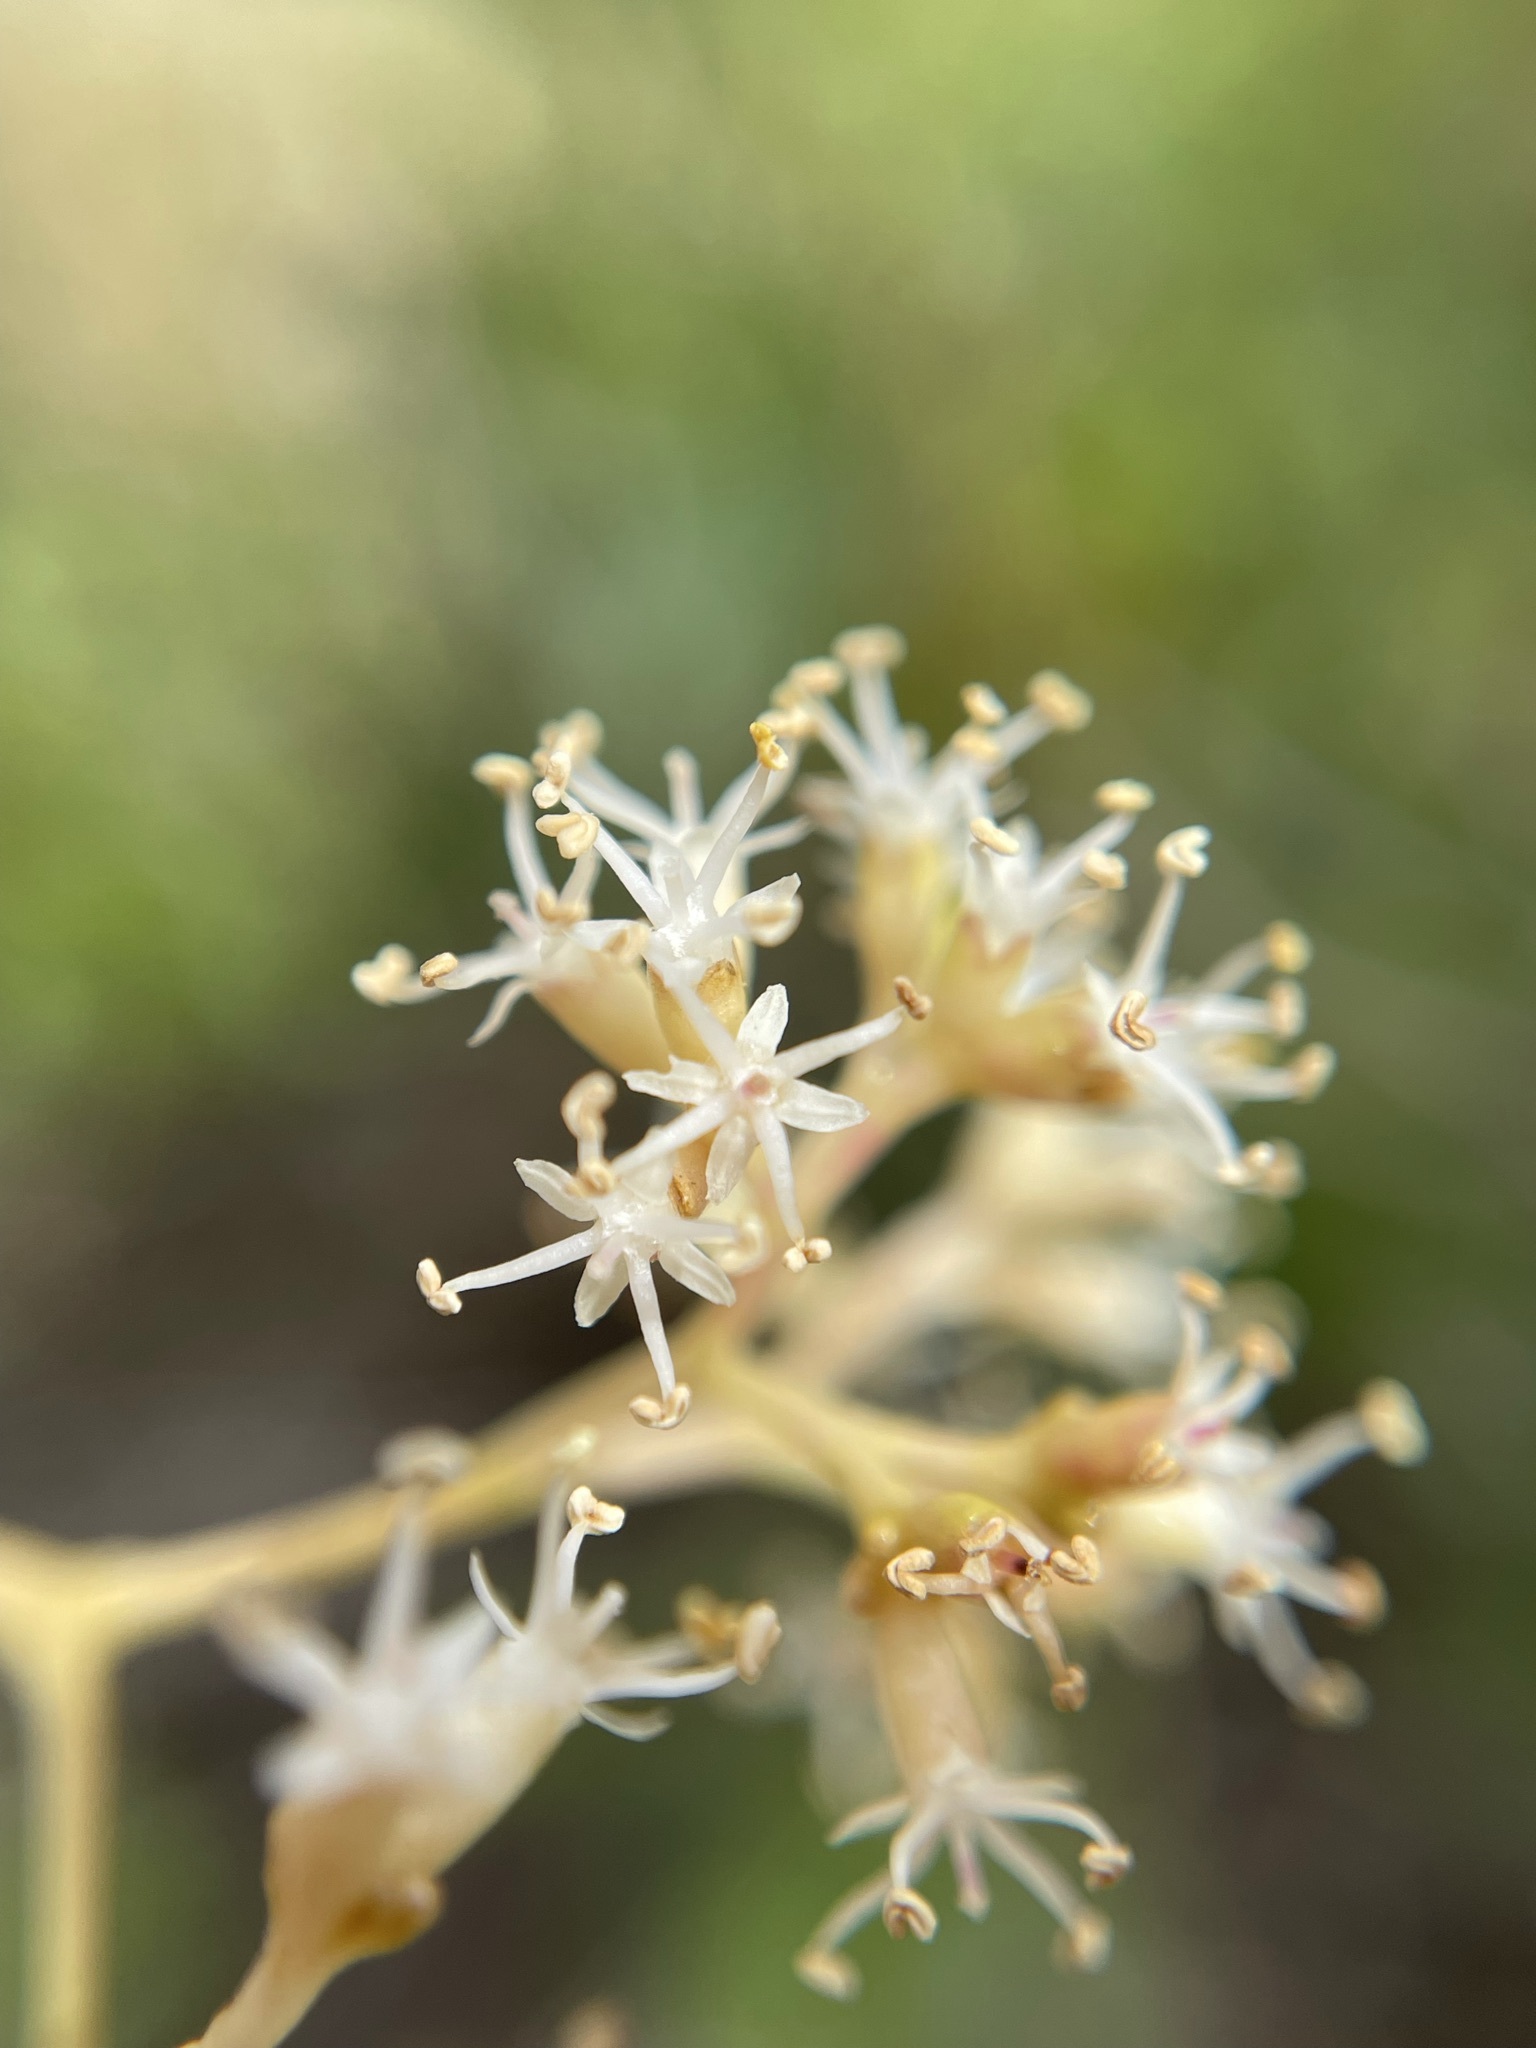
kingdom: Plantae
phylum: Tracheophyta
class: Magnoliopsida
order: Lamiales
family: Stilbaceae
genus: Nuxia
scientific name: Nuxia floribunda
